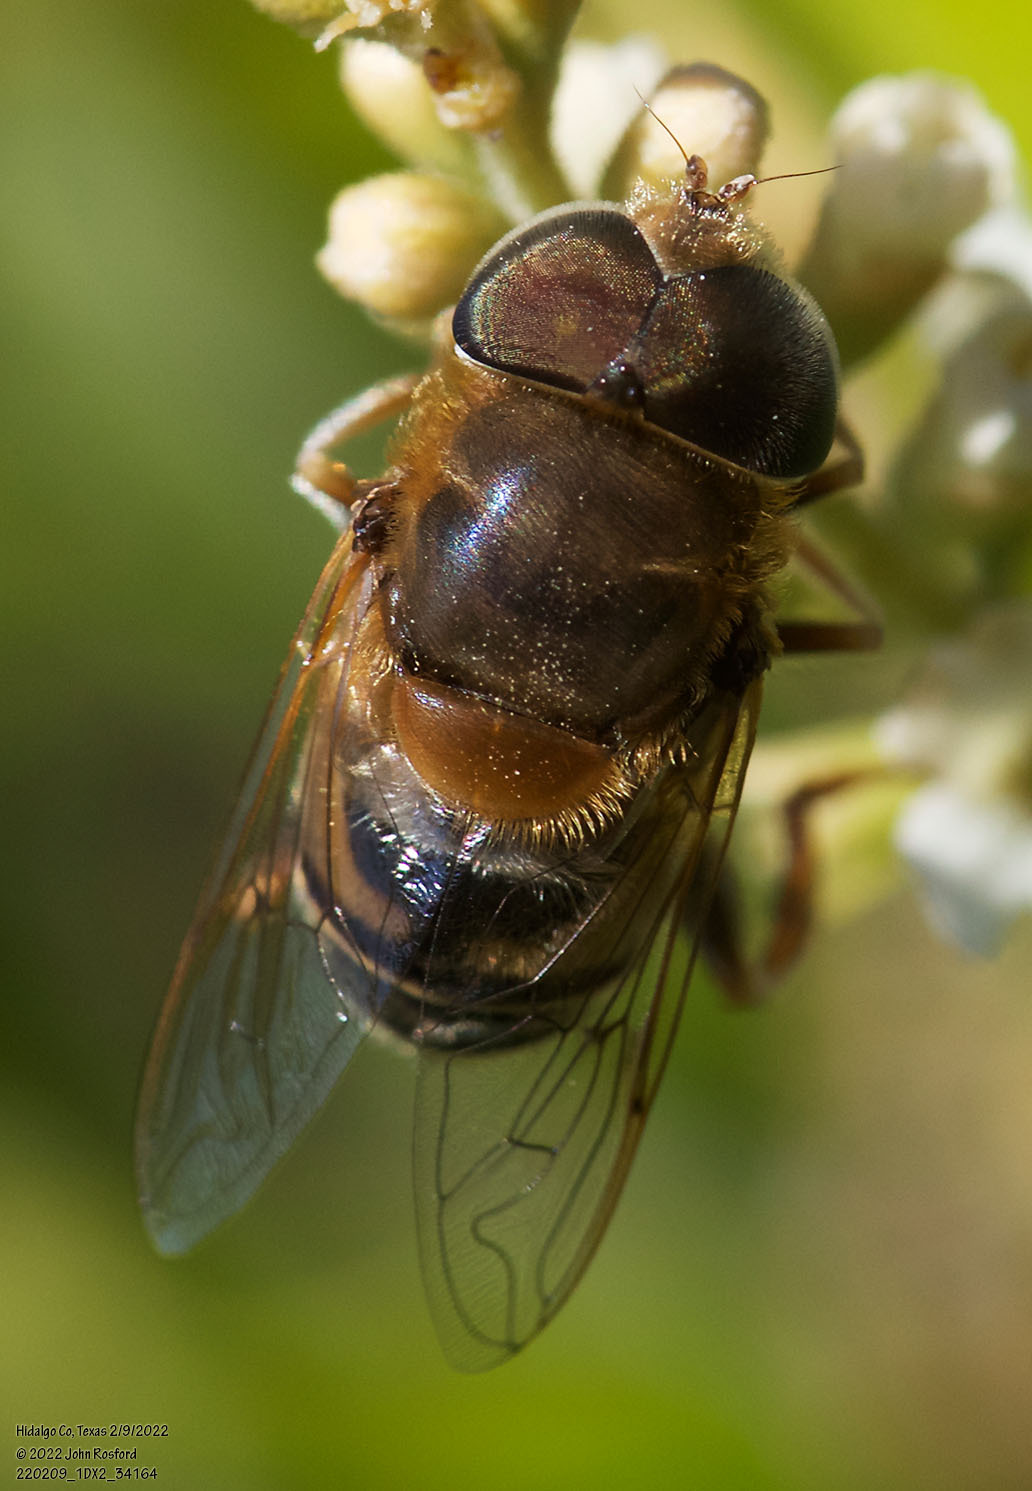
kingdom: Animalia
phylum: Arthropoda
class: Insecta
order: Diptera
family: Syrphidae
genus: Palpada
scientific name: Palpada mexicana
